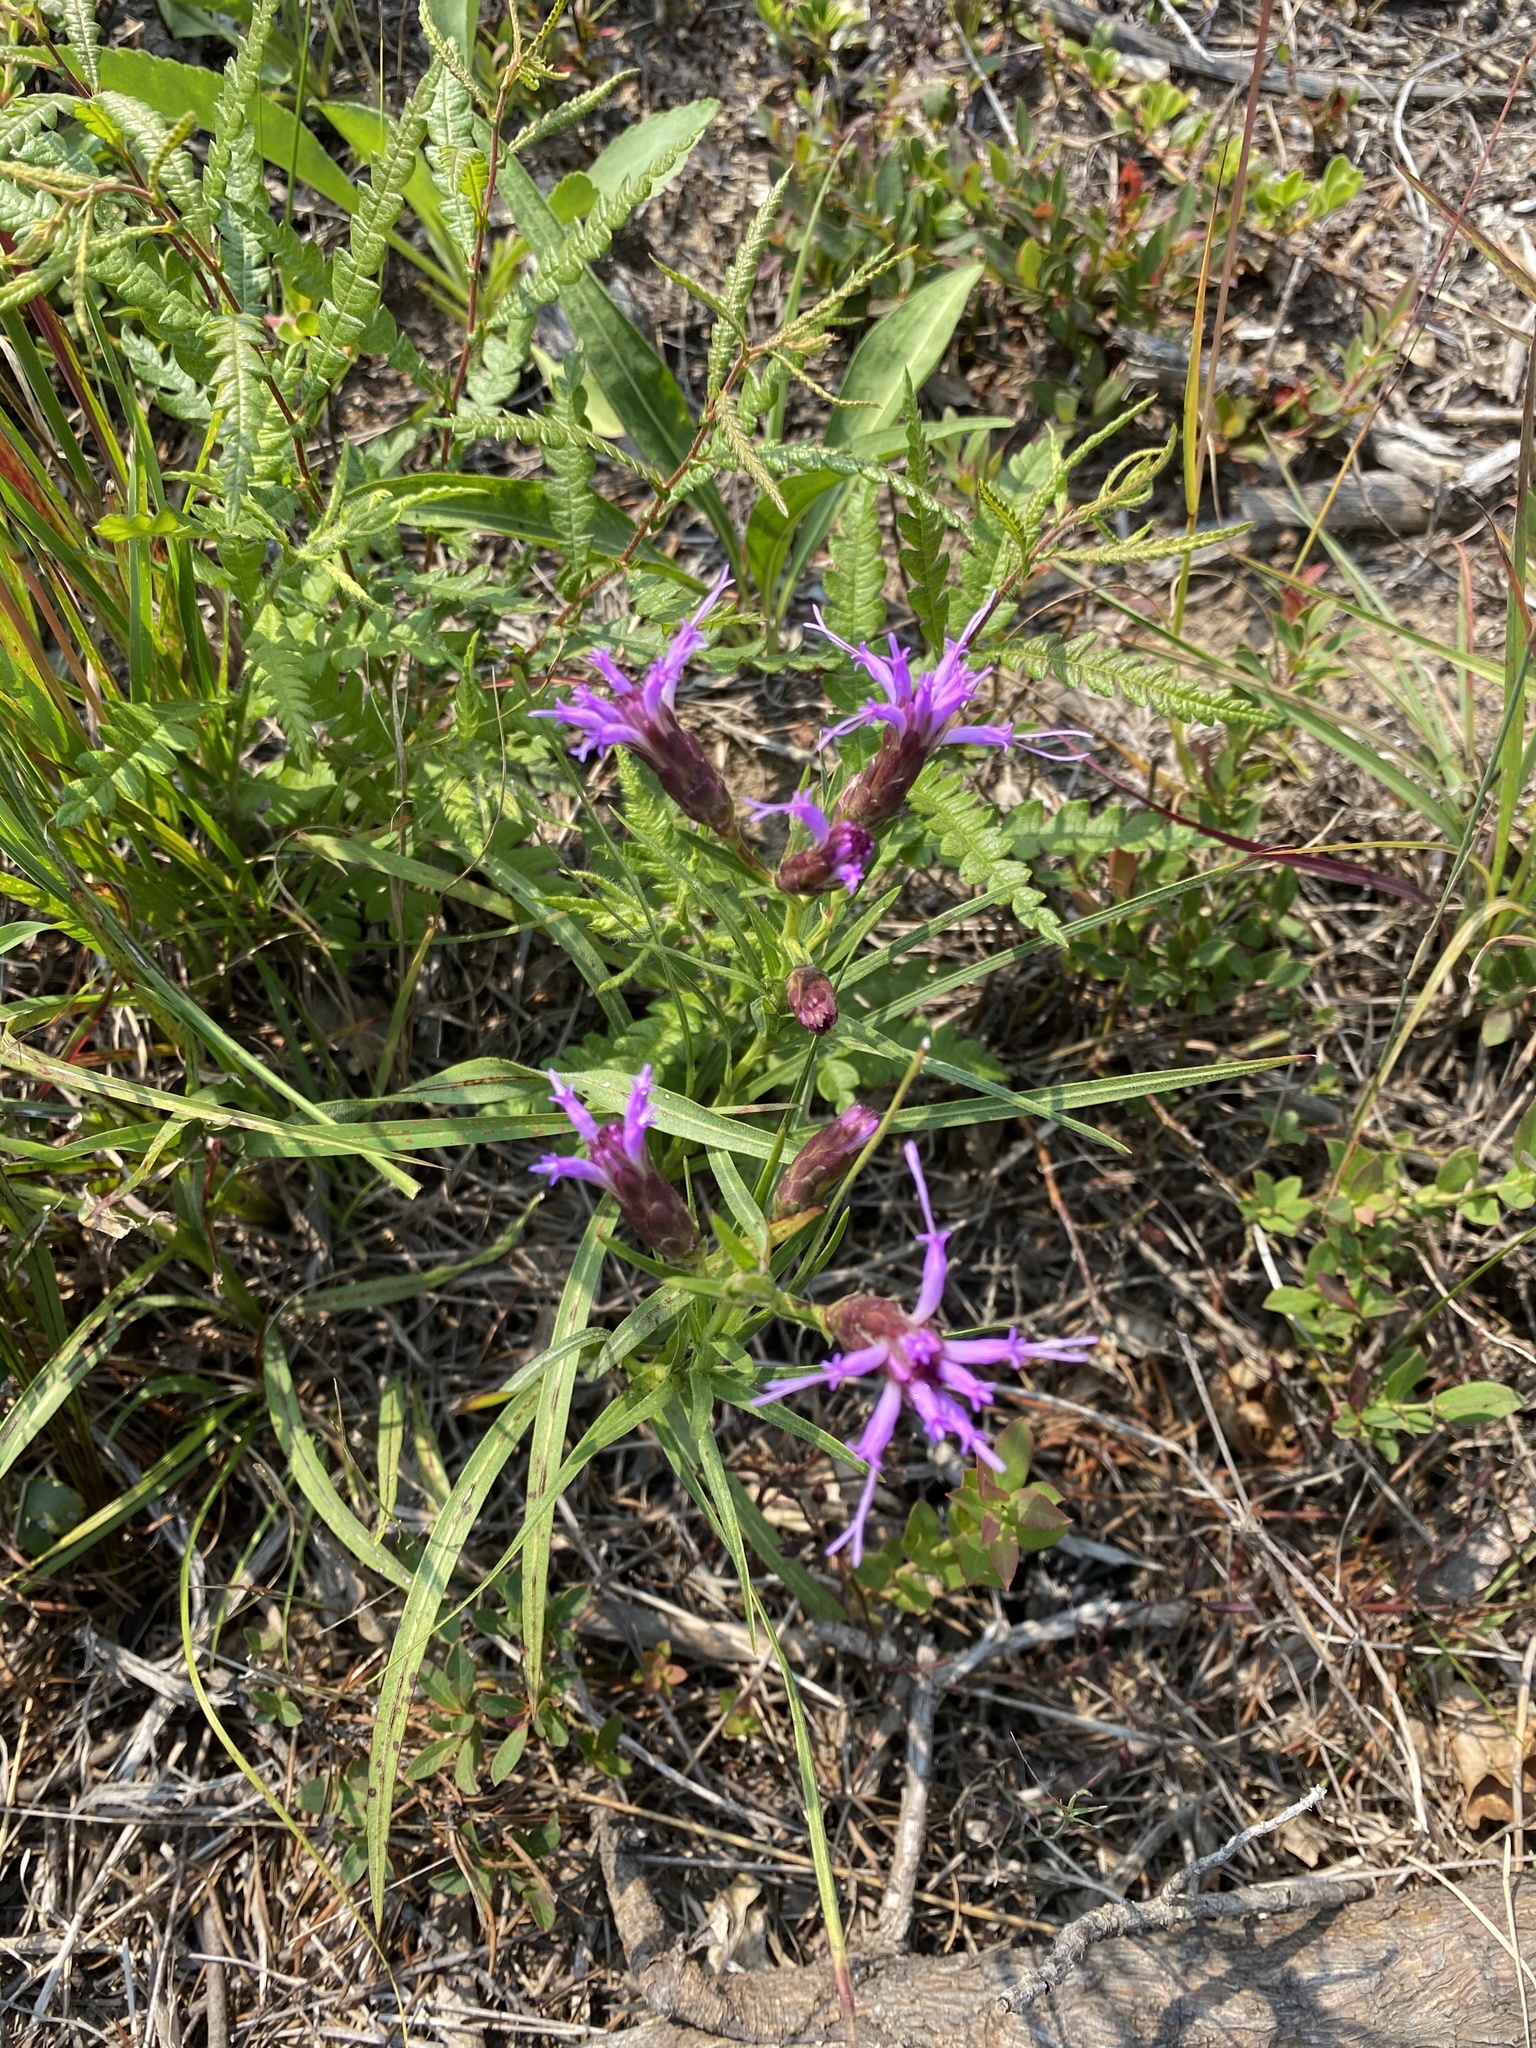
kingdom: Plantae
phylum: Tracheophyta
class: Magnoliopsida
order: Asterales
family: Asteraceae
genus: Liatris
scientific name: Liatris cylindracea
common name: Few-head blazingstar
